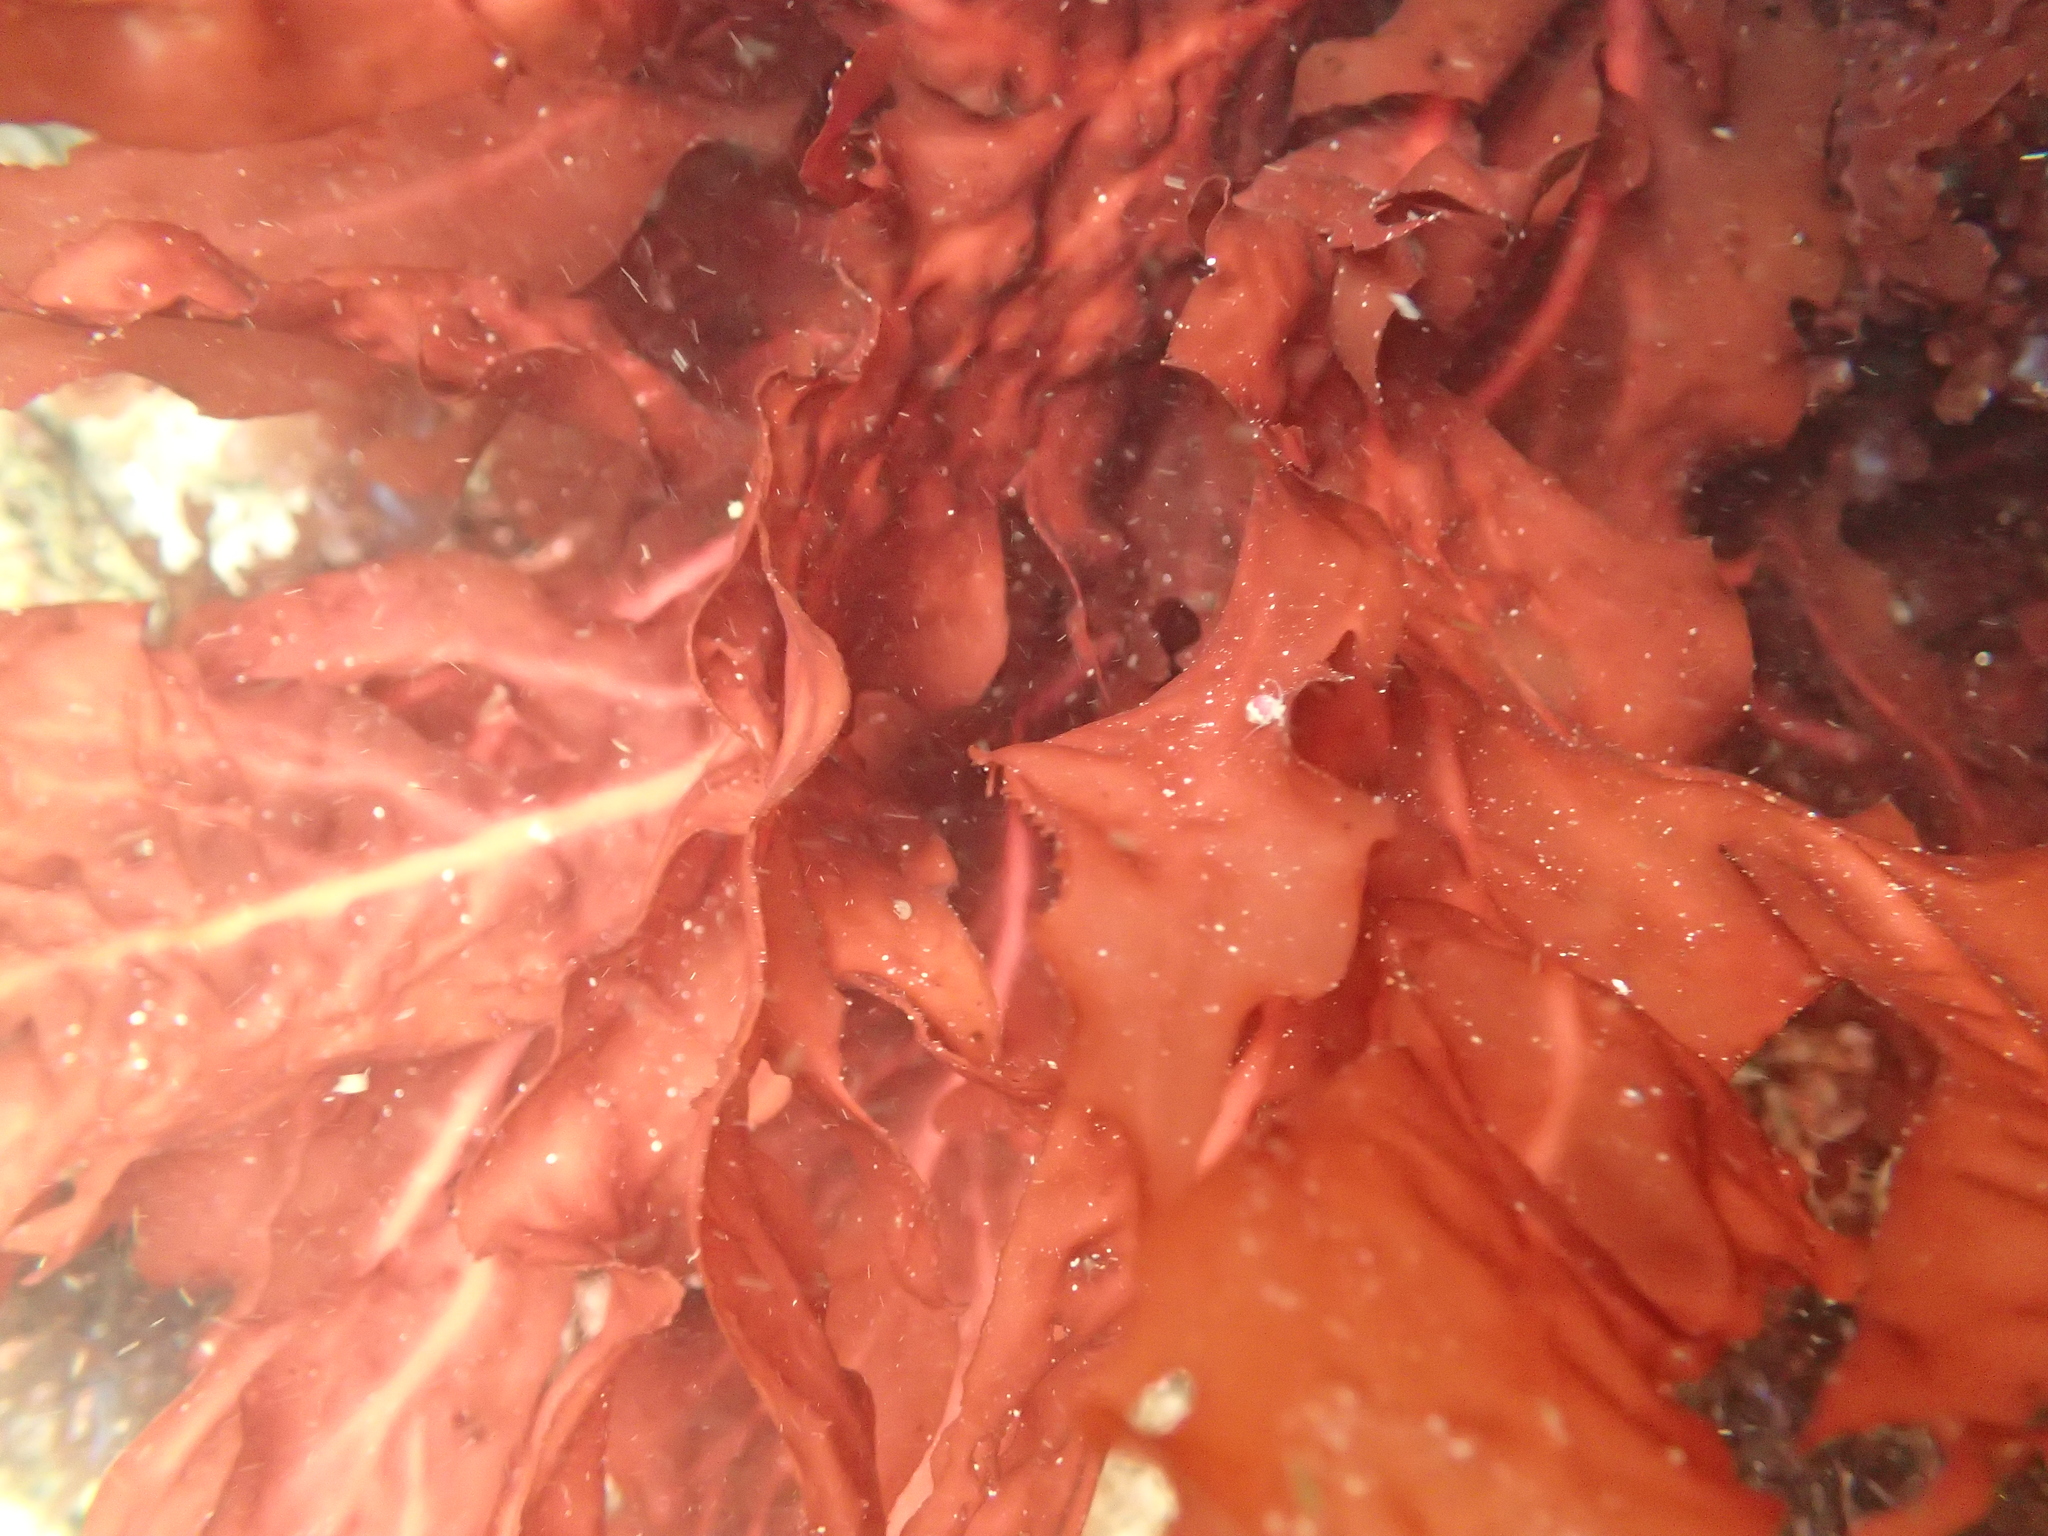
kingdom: Plantae
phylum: Rhodophyta
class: Florideophyceae
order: Gigartinales
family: Kallymeniaceae
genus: Erythrophyllum
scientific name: Erythrophyllum delesserioides
